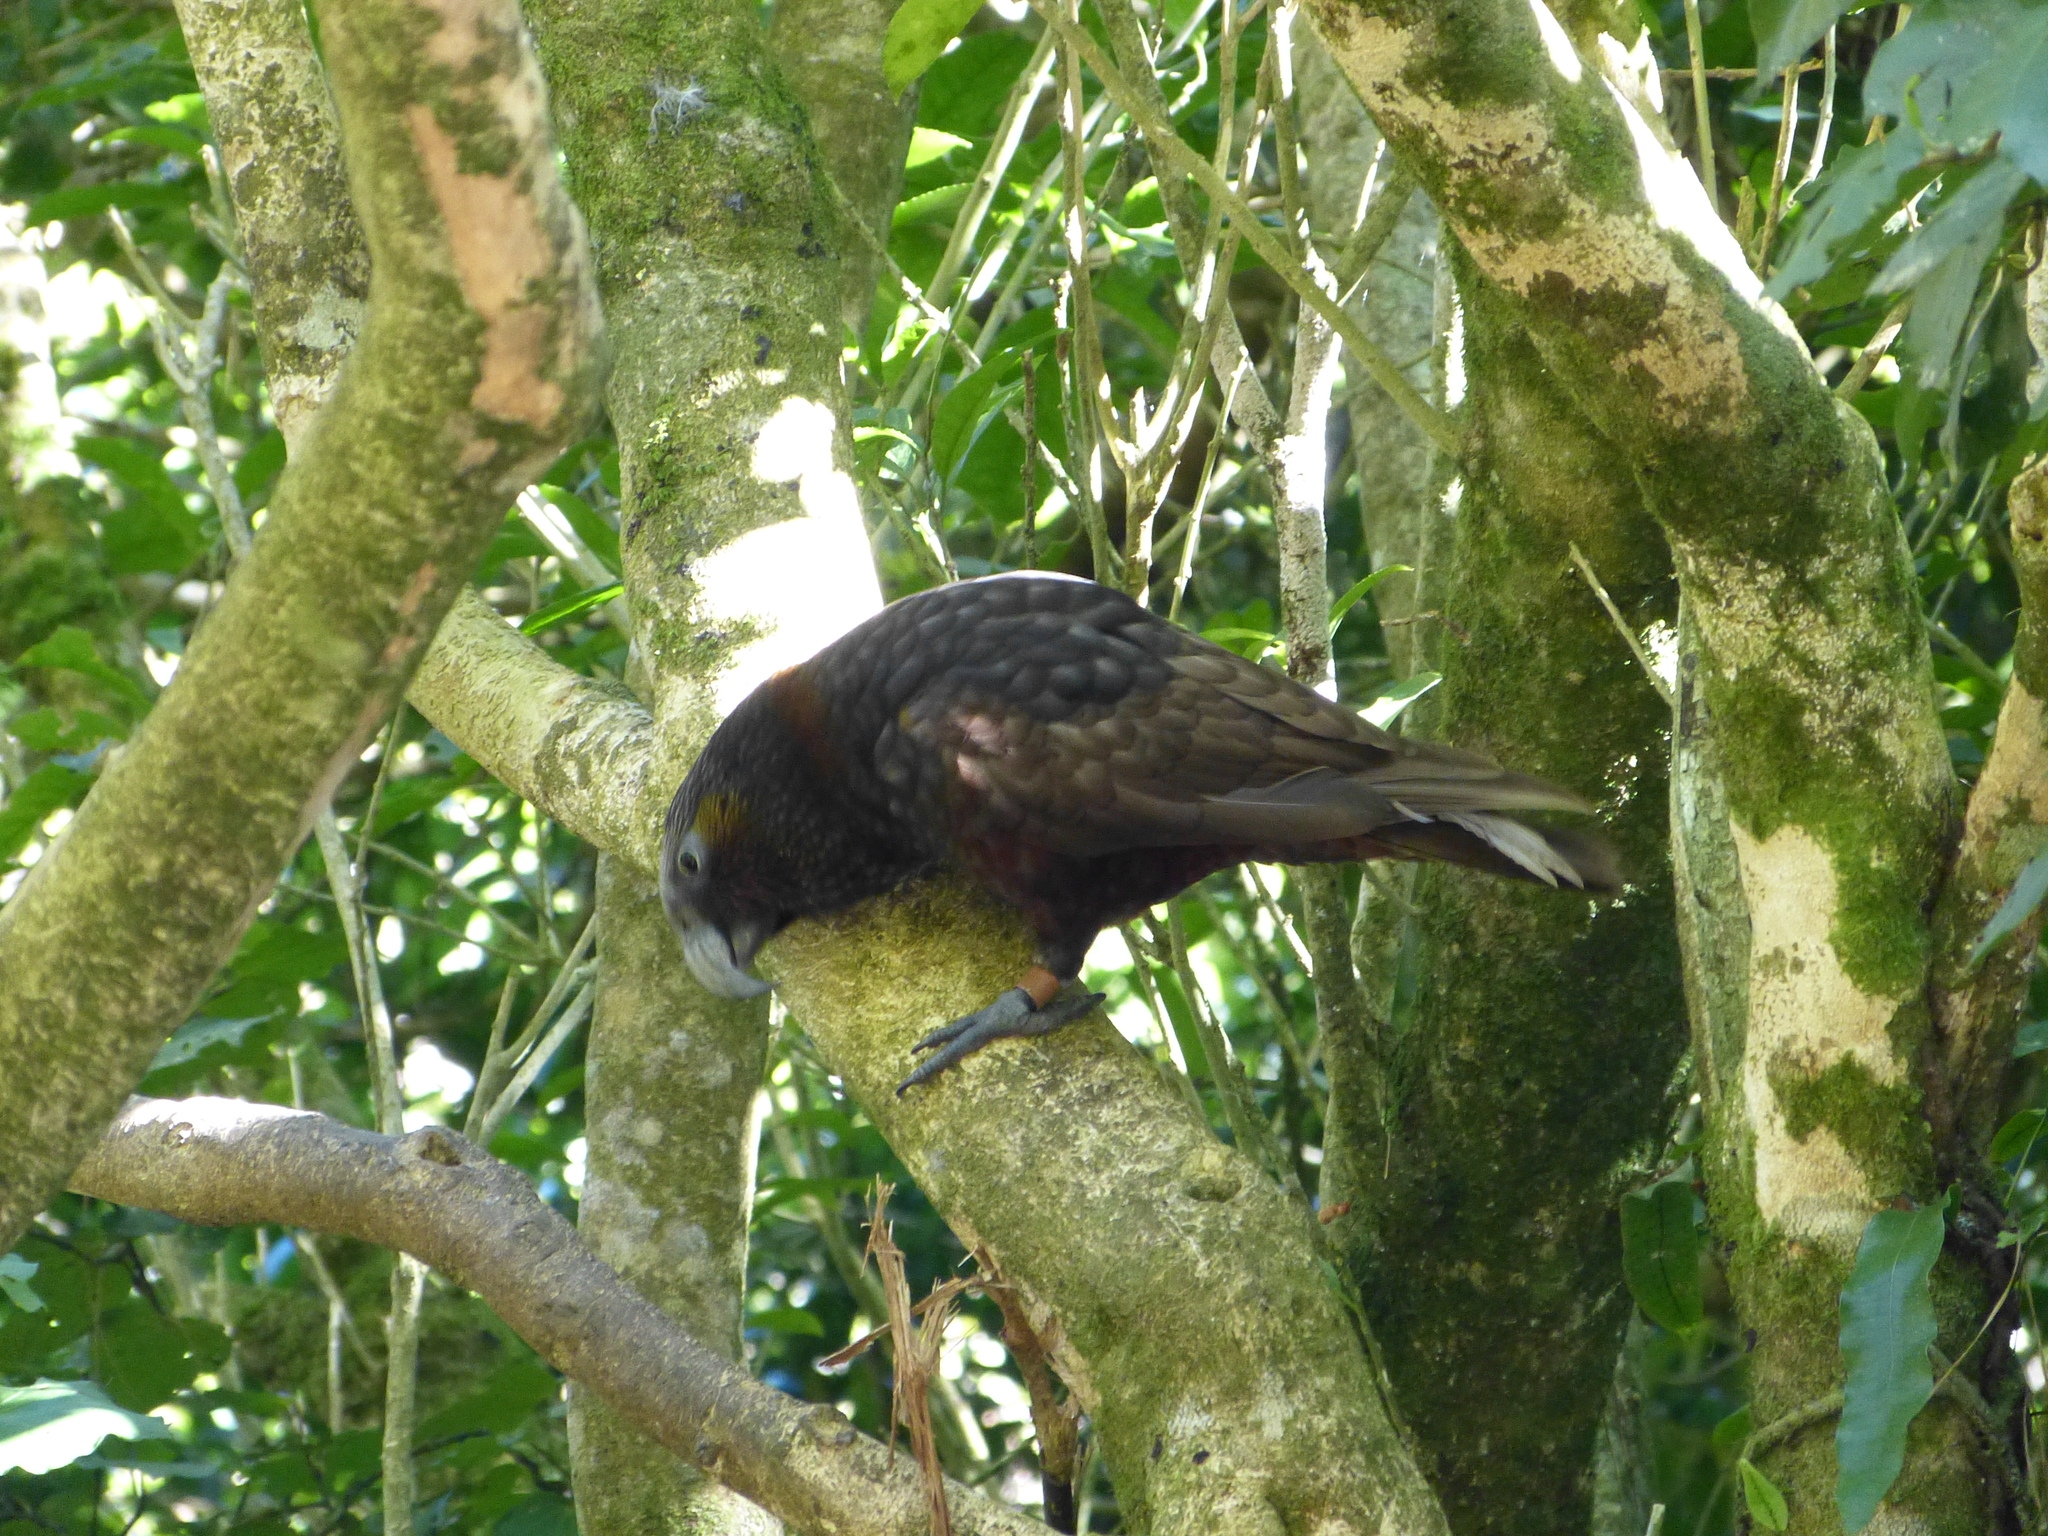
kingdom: Animalia
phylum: Chordata
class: Aves
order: Psittaciformes
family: Psittacidae
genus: Nestor
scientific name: Nestor meridionalis
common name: New zealand kaka
